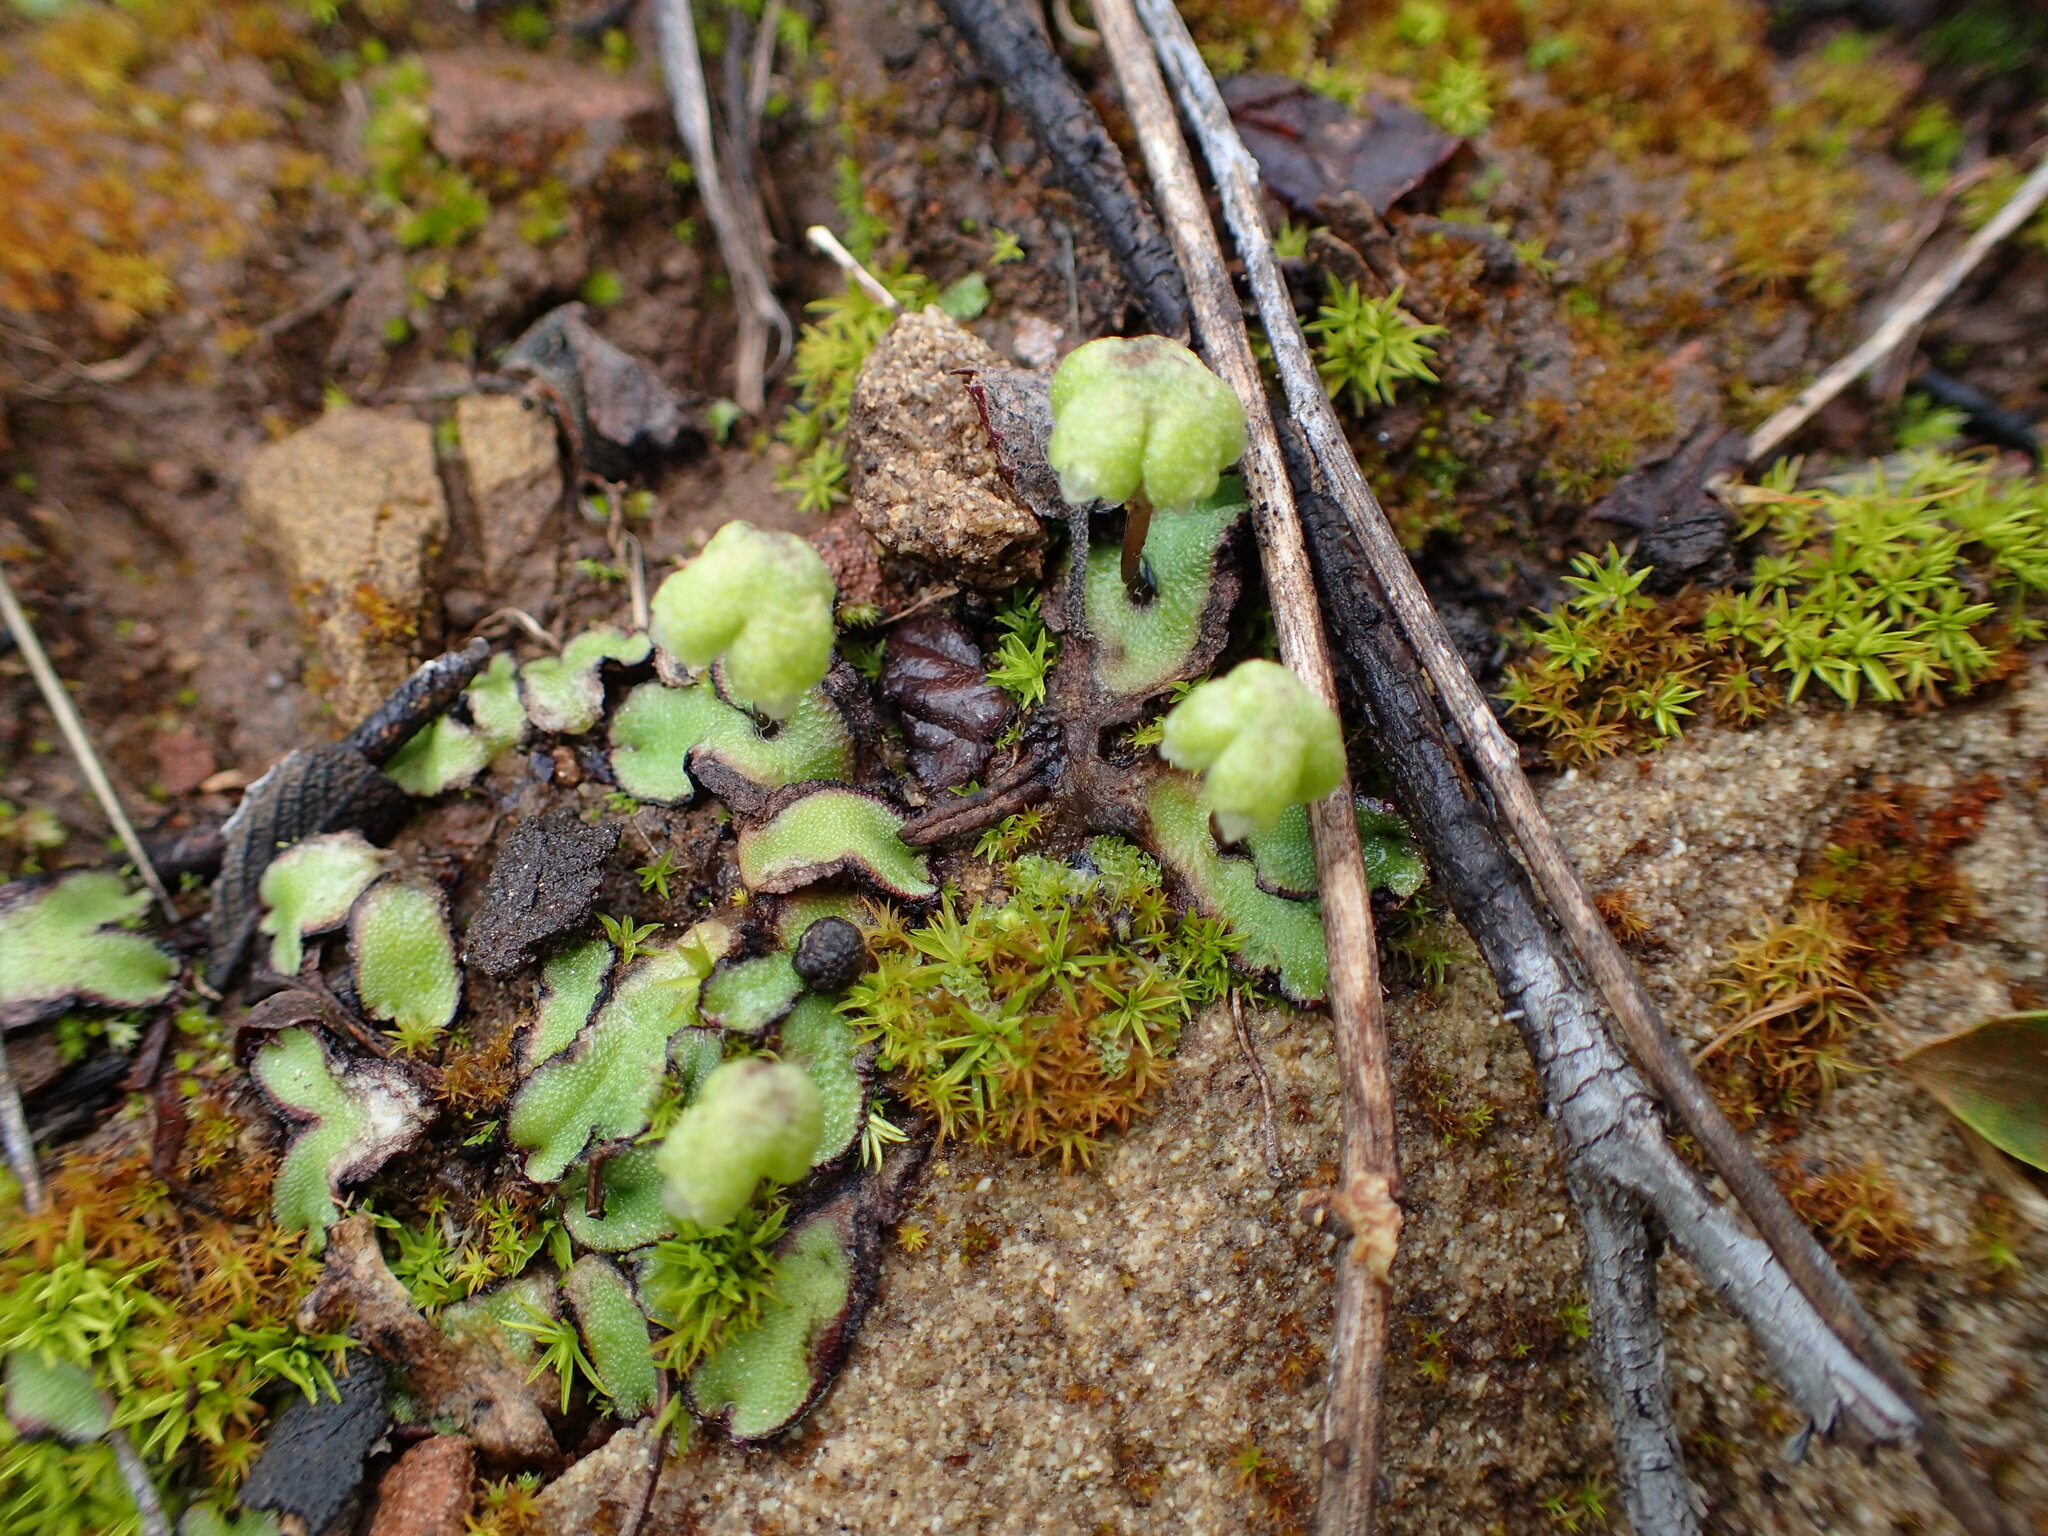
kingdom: Plantae
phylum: Marchantiophyta
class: Marchantiopsida
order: Marchantiales
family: Aytoniaceae
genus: Asterella
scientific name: Asterella californica
